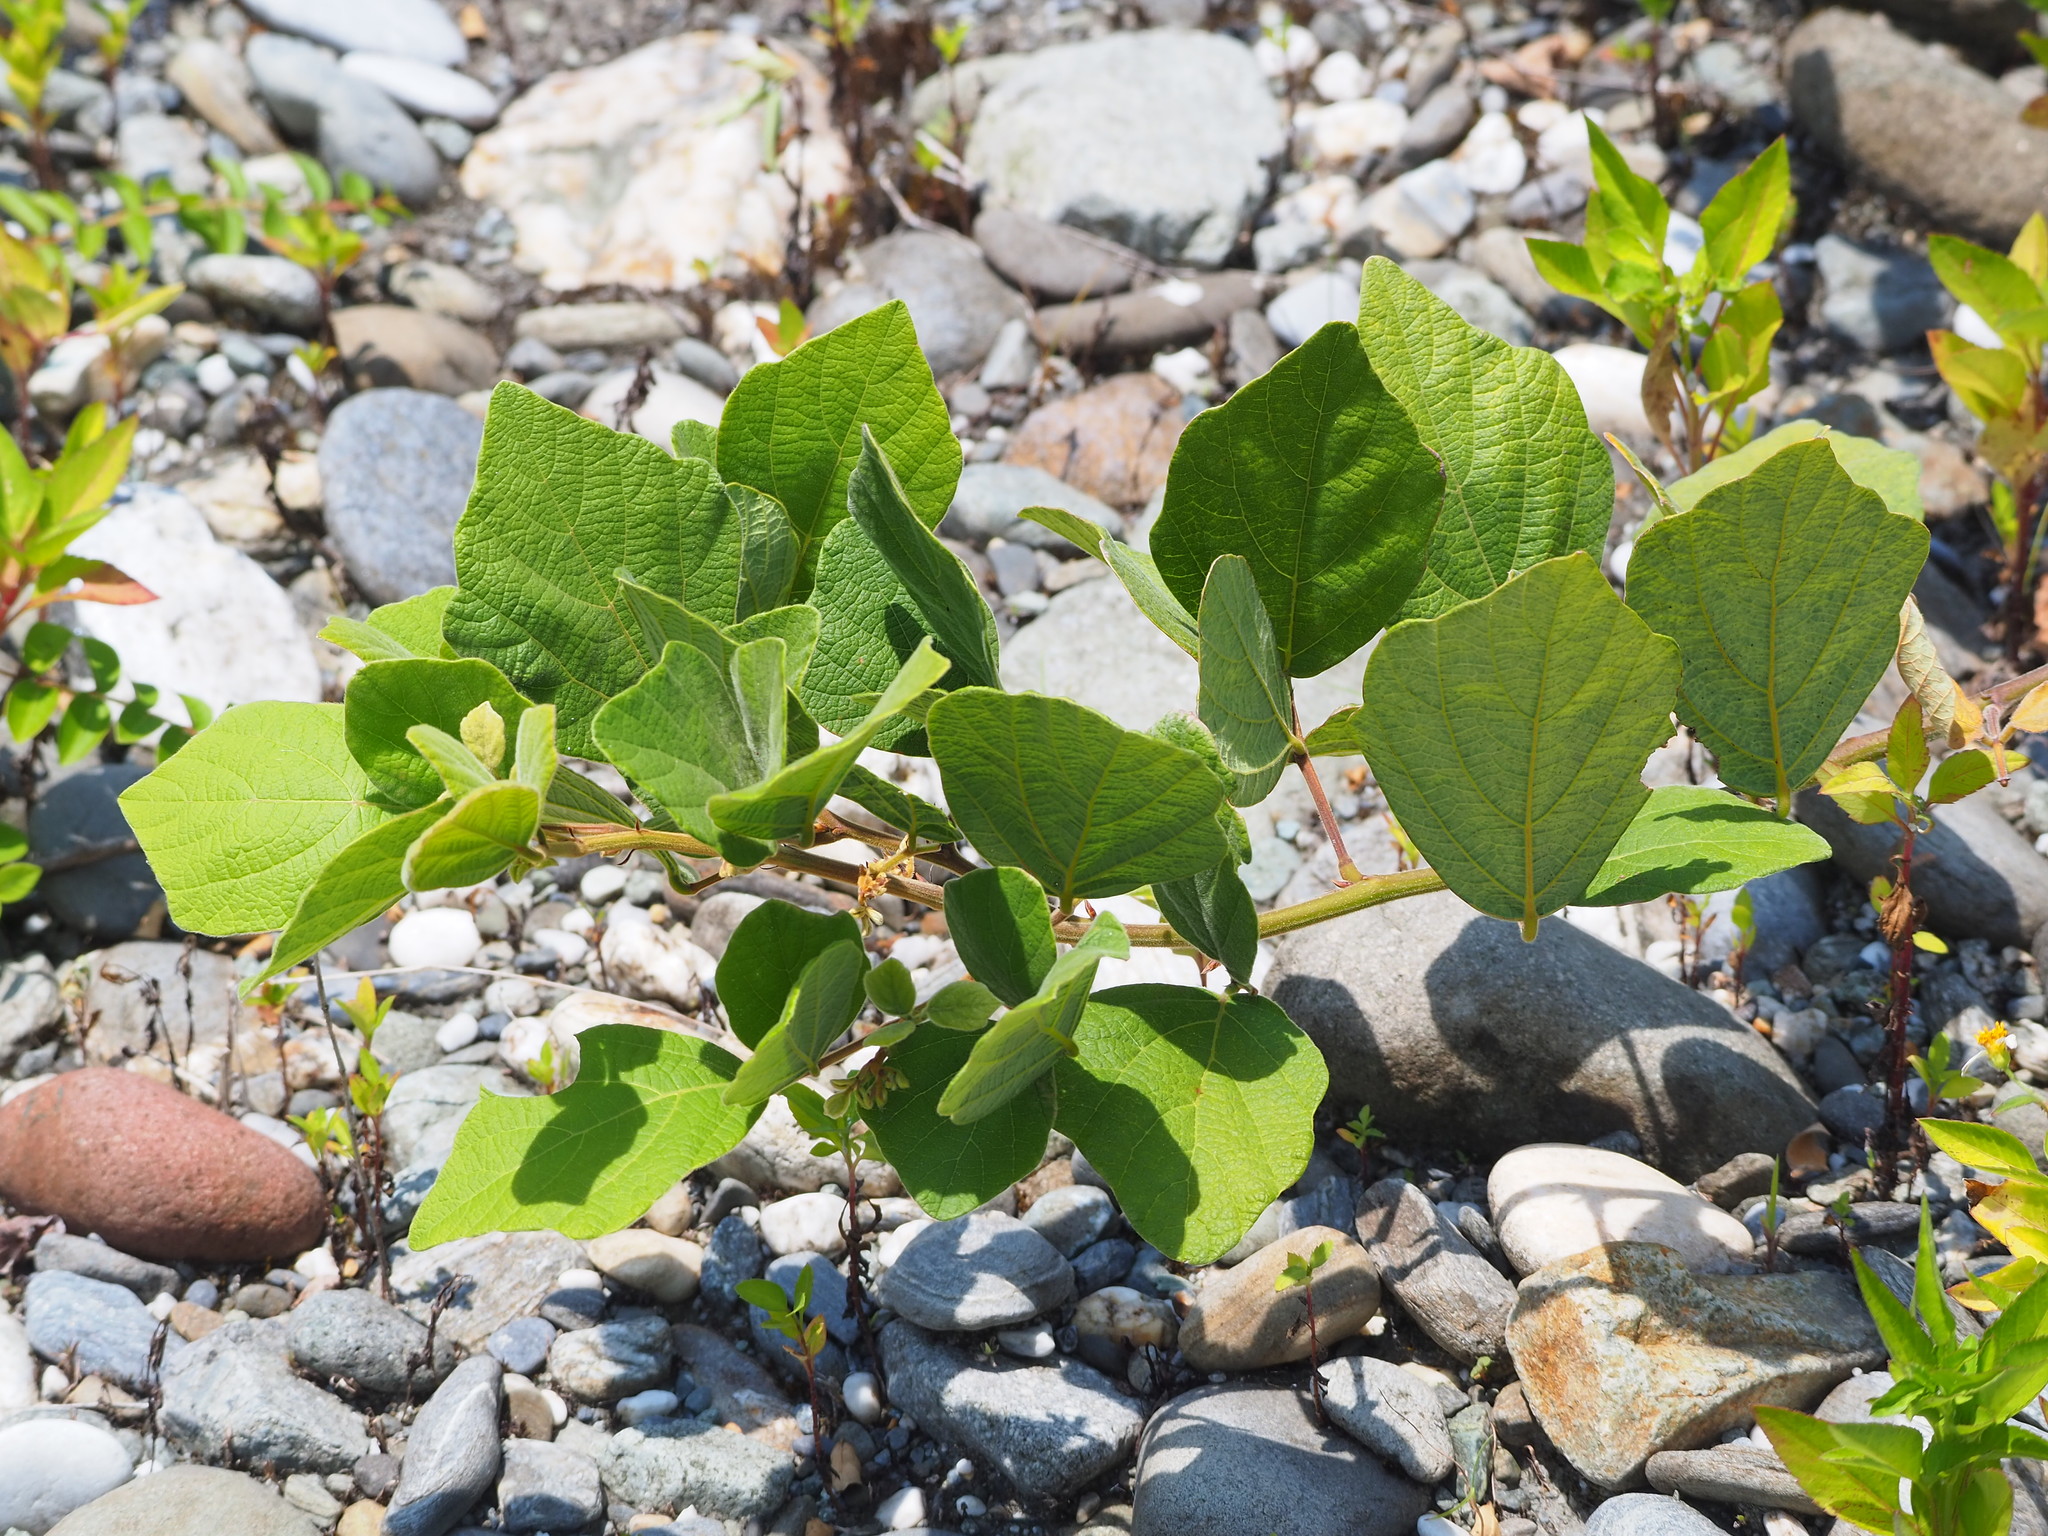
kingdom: Plantae
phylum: Tracheophyta
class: Magnoliopsida
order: Fabales
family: Fabaceae
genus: Puhuaea
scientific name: Puhuaea sequax
